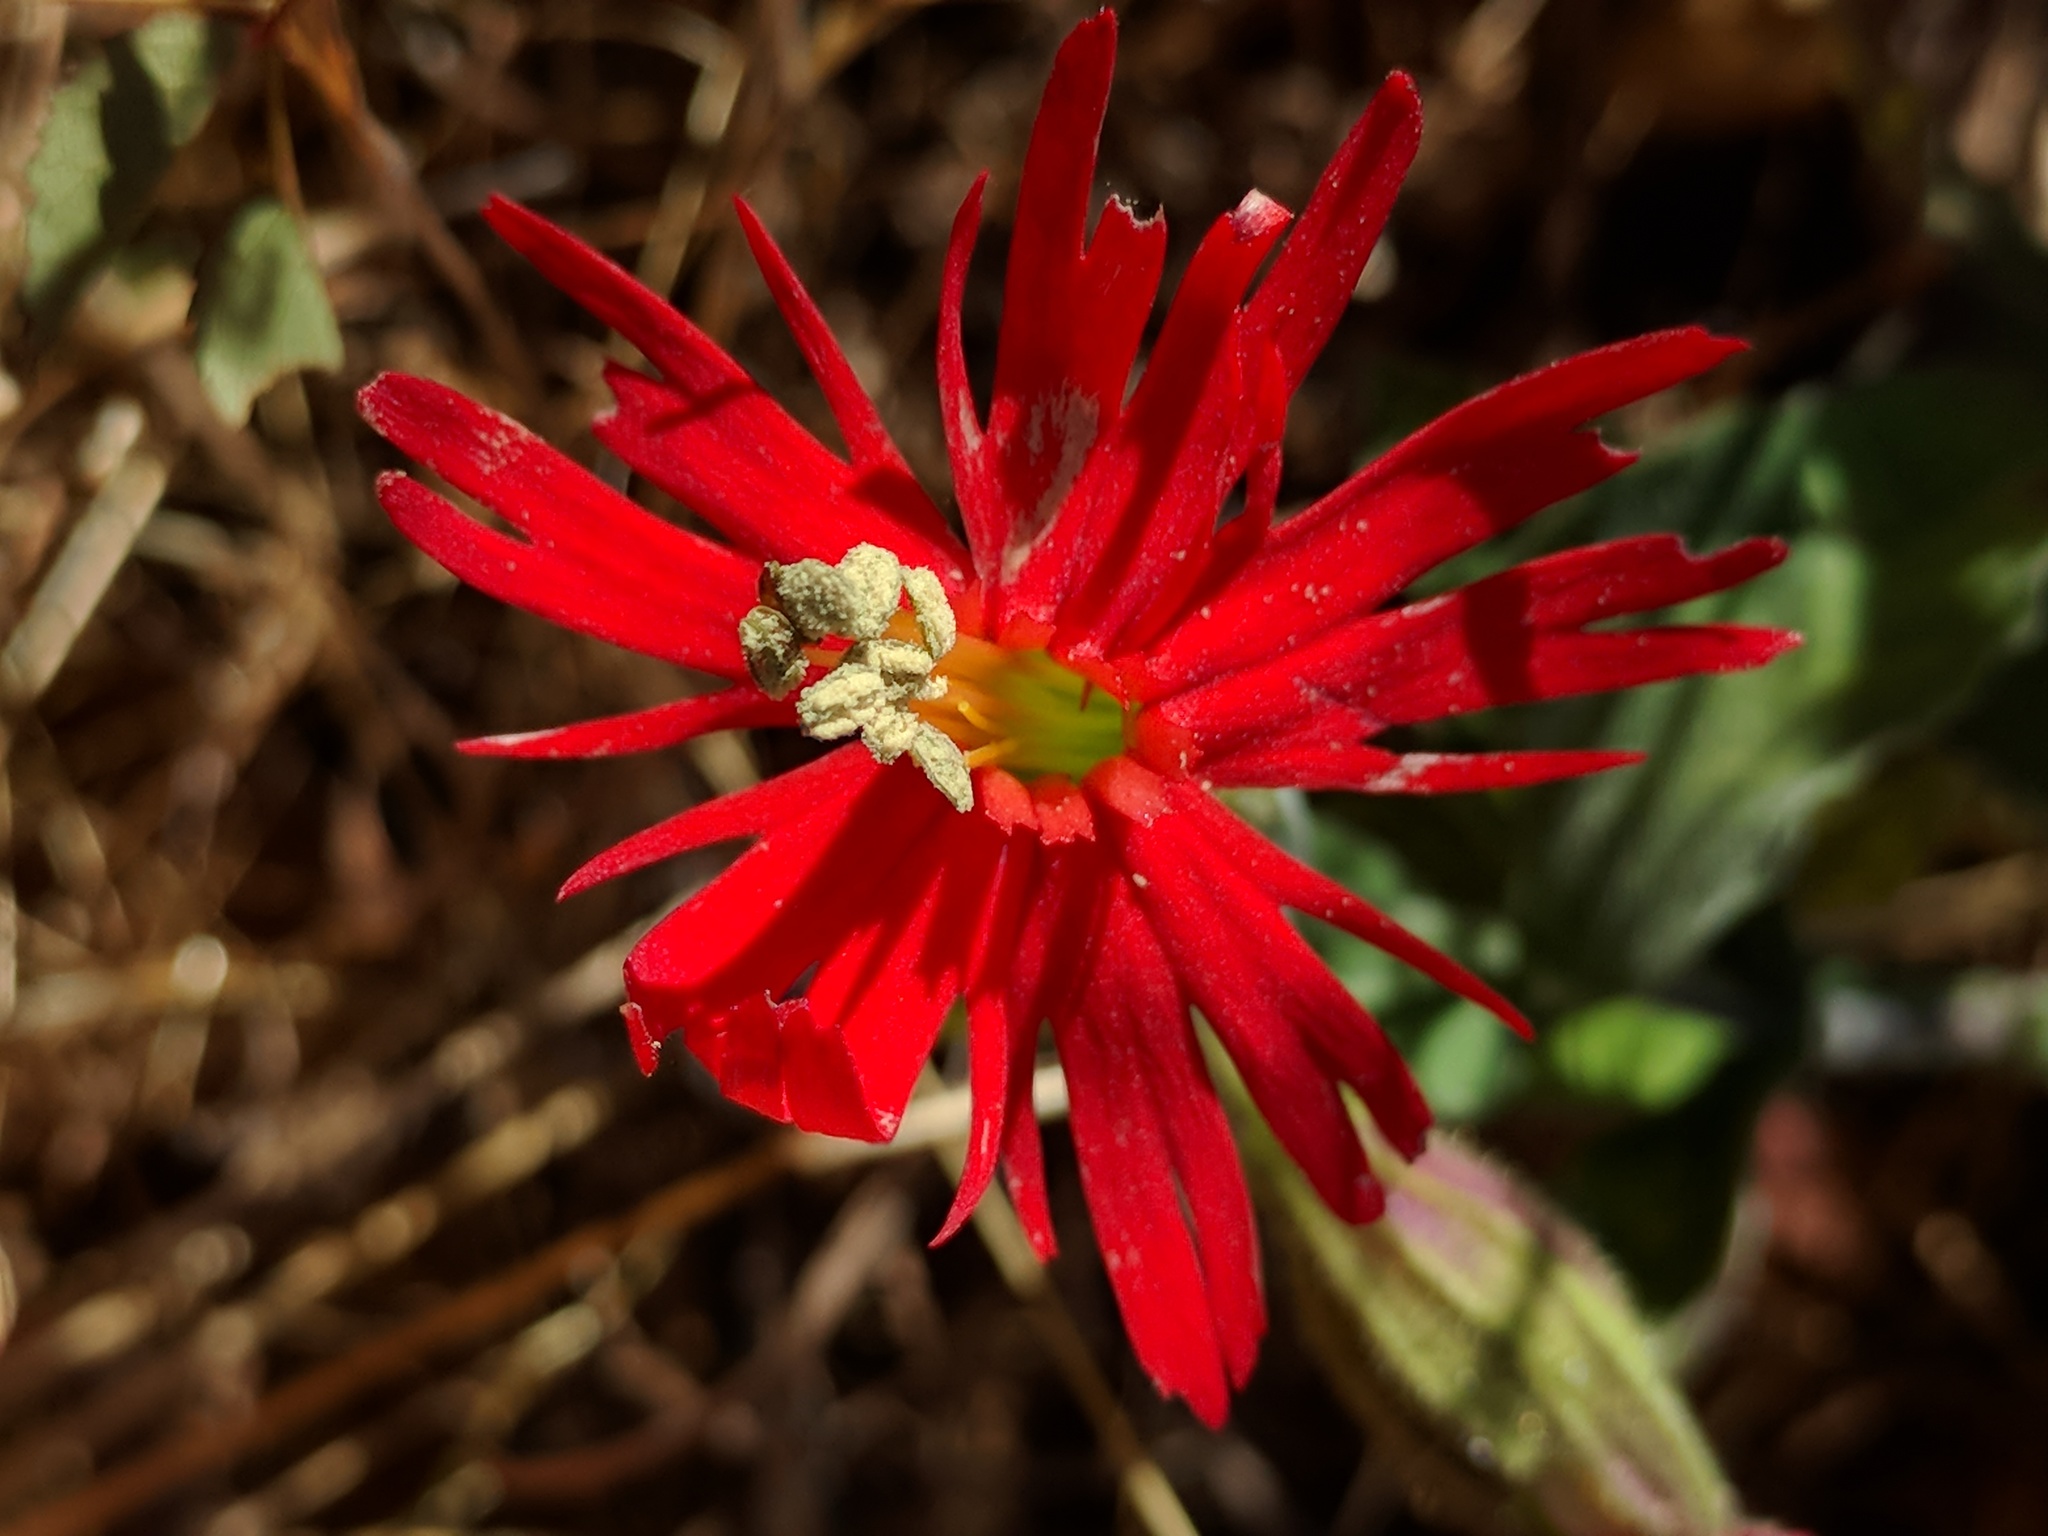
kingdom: Plantae
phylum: Tracheophyta
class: Magnoliopsida
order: Caryophyllales
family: Caryophyllaceae
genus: Silene
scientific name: Silene laciniata
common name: Indian-pink
